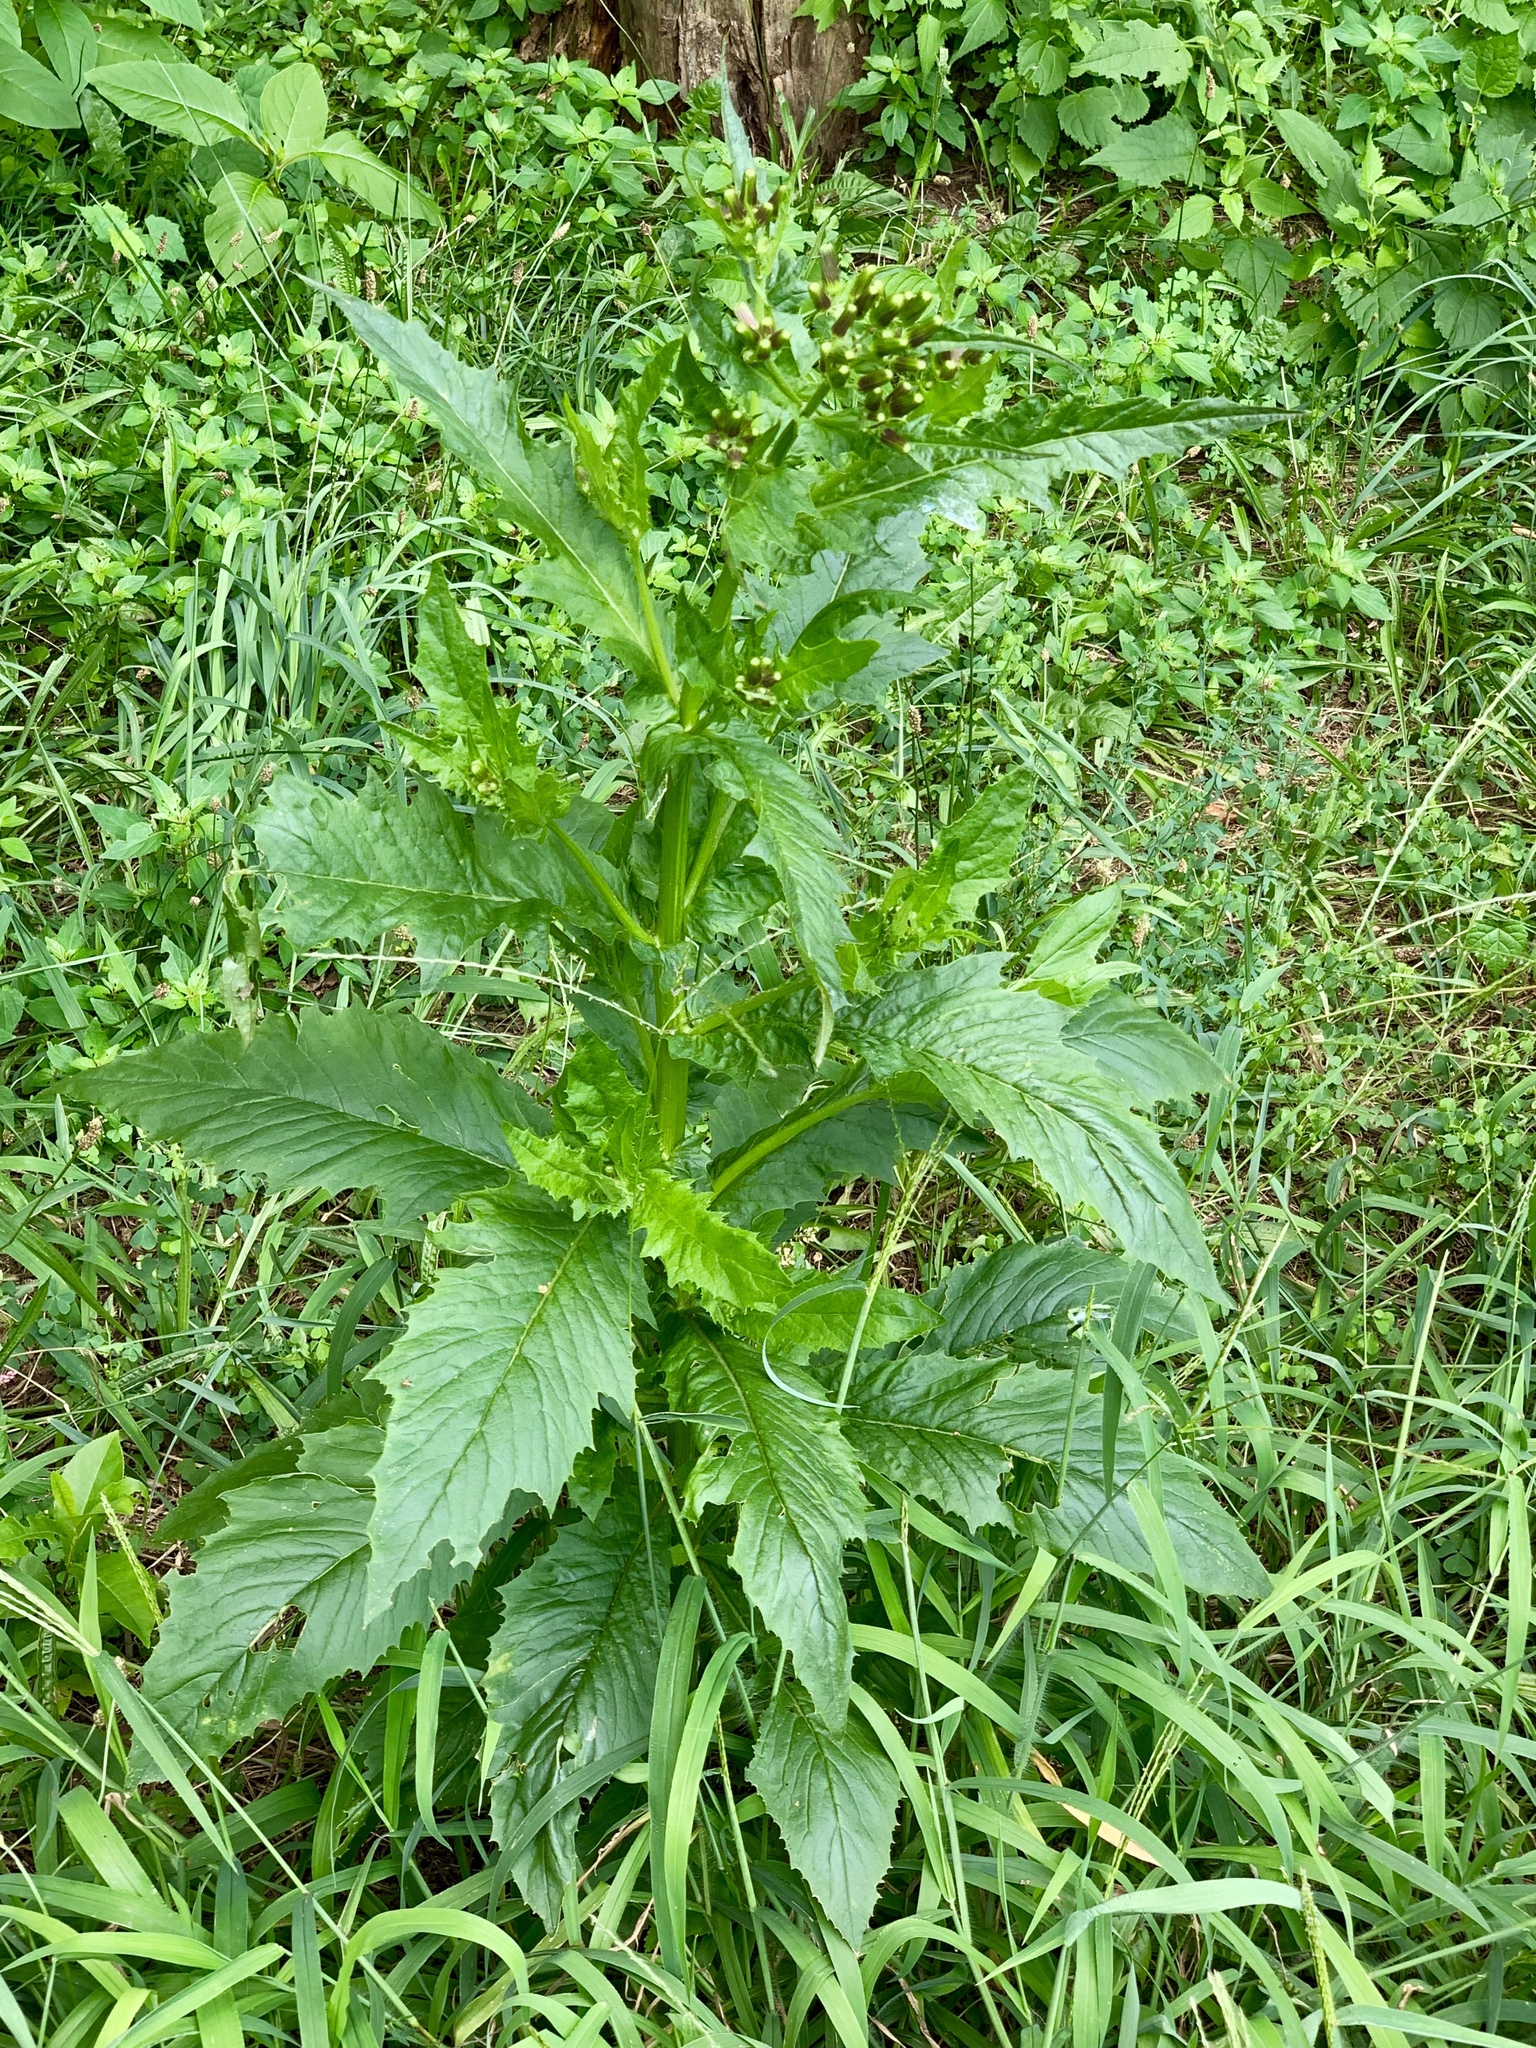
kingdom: Plantae
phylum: Tracheophyta
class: Magnoliopsida
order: Asterales
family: Asteraceae
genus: Erechtites
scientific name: Erechtites hieraciifolius
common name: American burnweed
